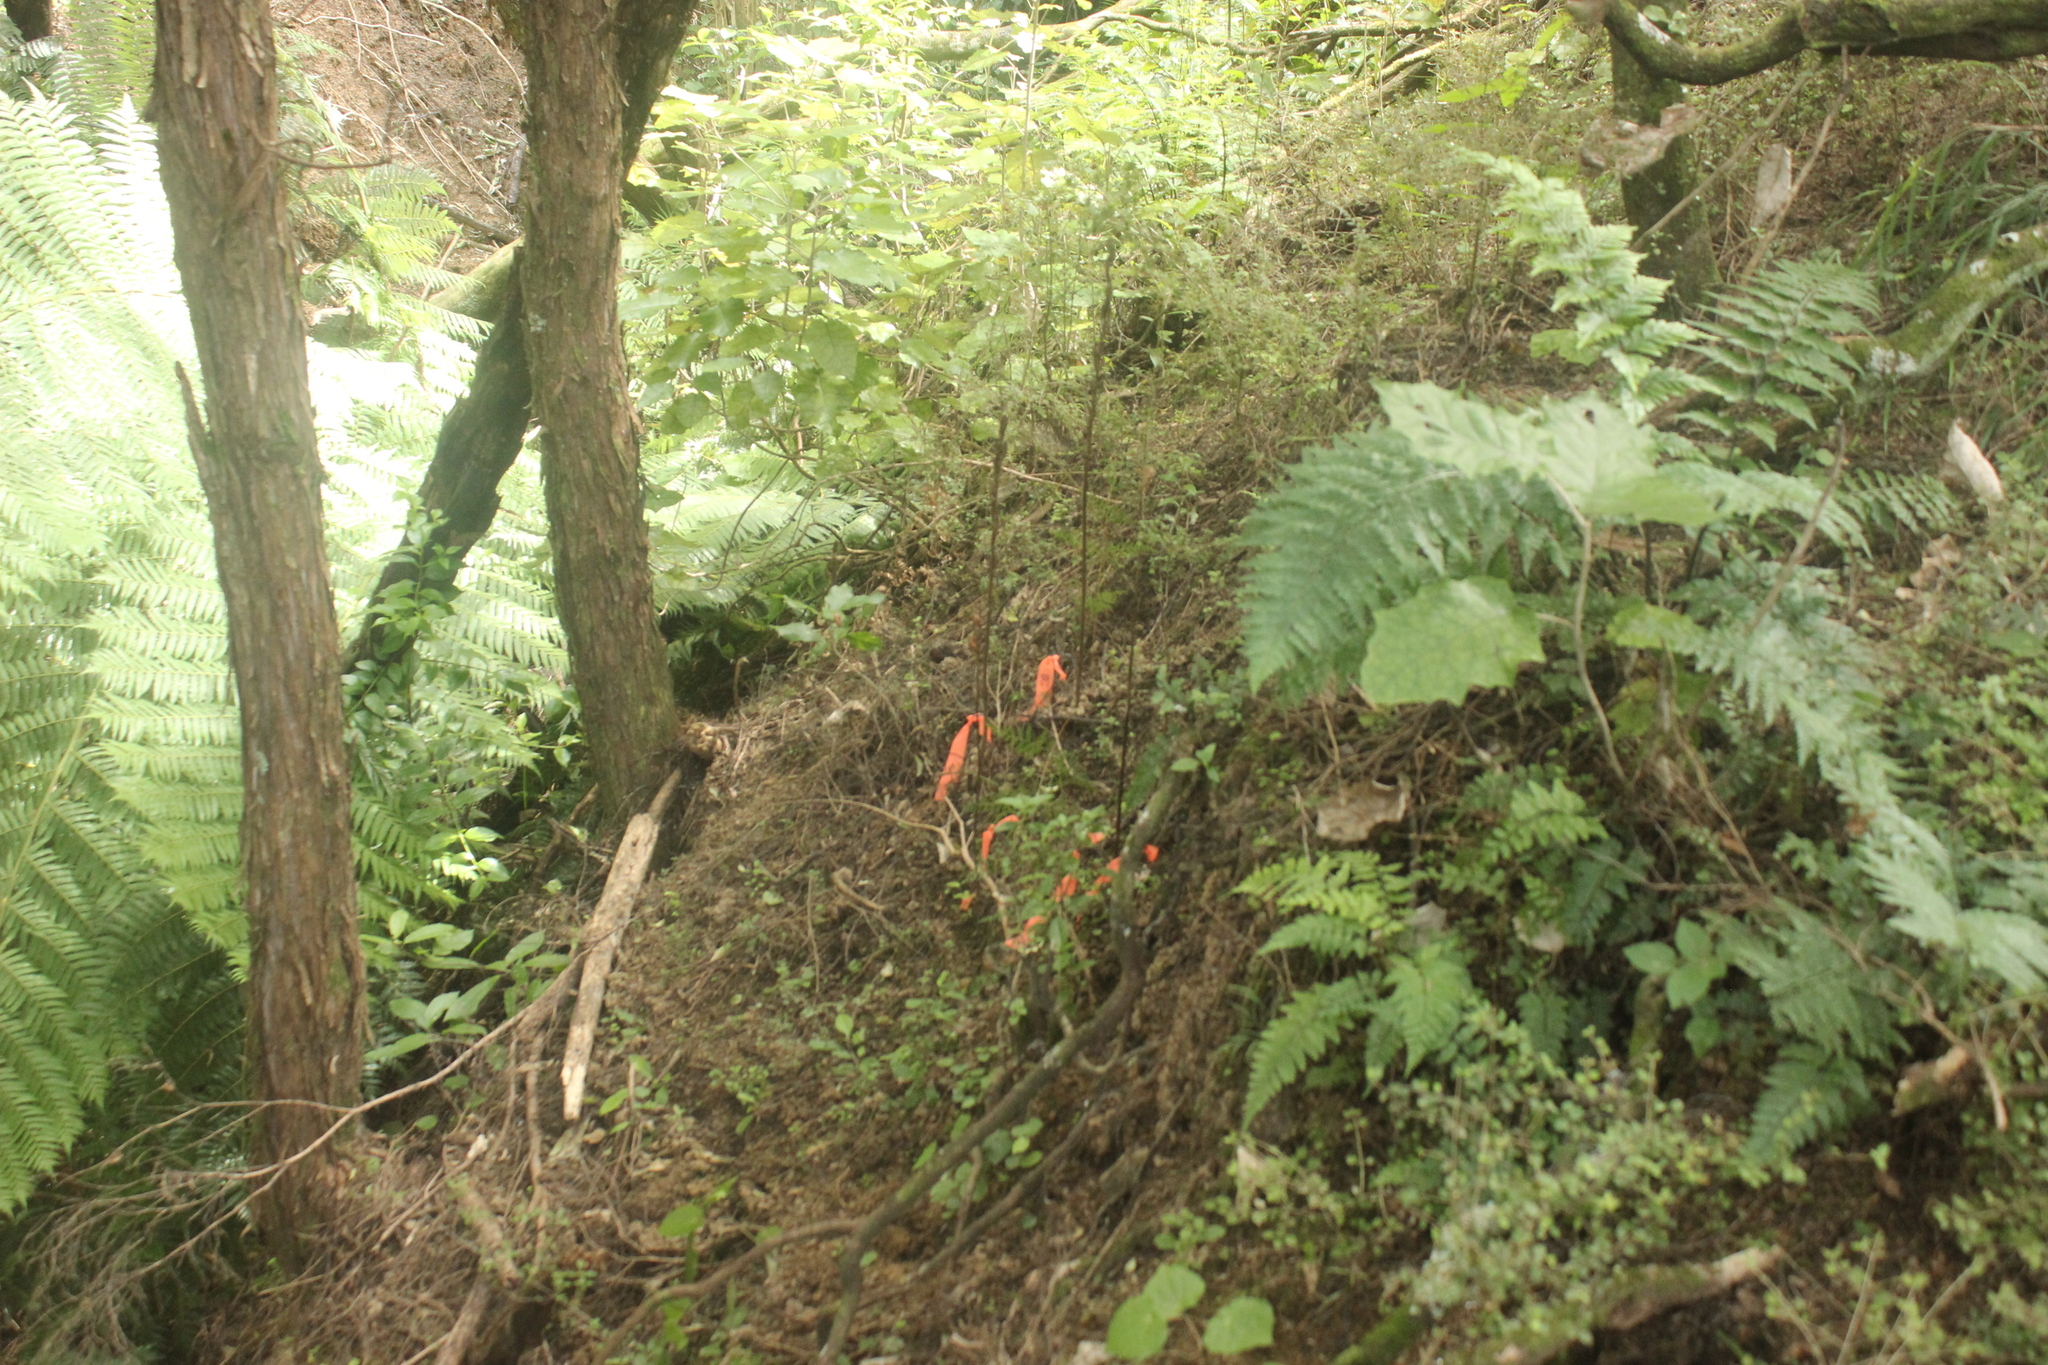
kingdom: Plantae
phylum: Tracheophyta
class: Liliopsida
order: Asparagales
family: Orchidaceae
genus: Gastrodia
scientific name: Gastrodia cooperae
